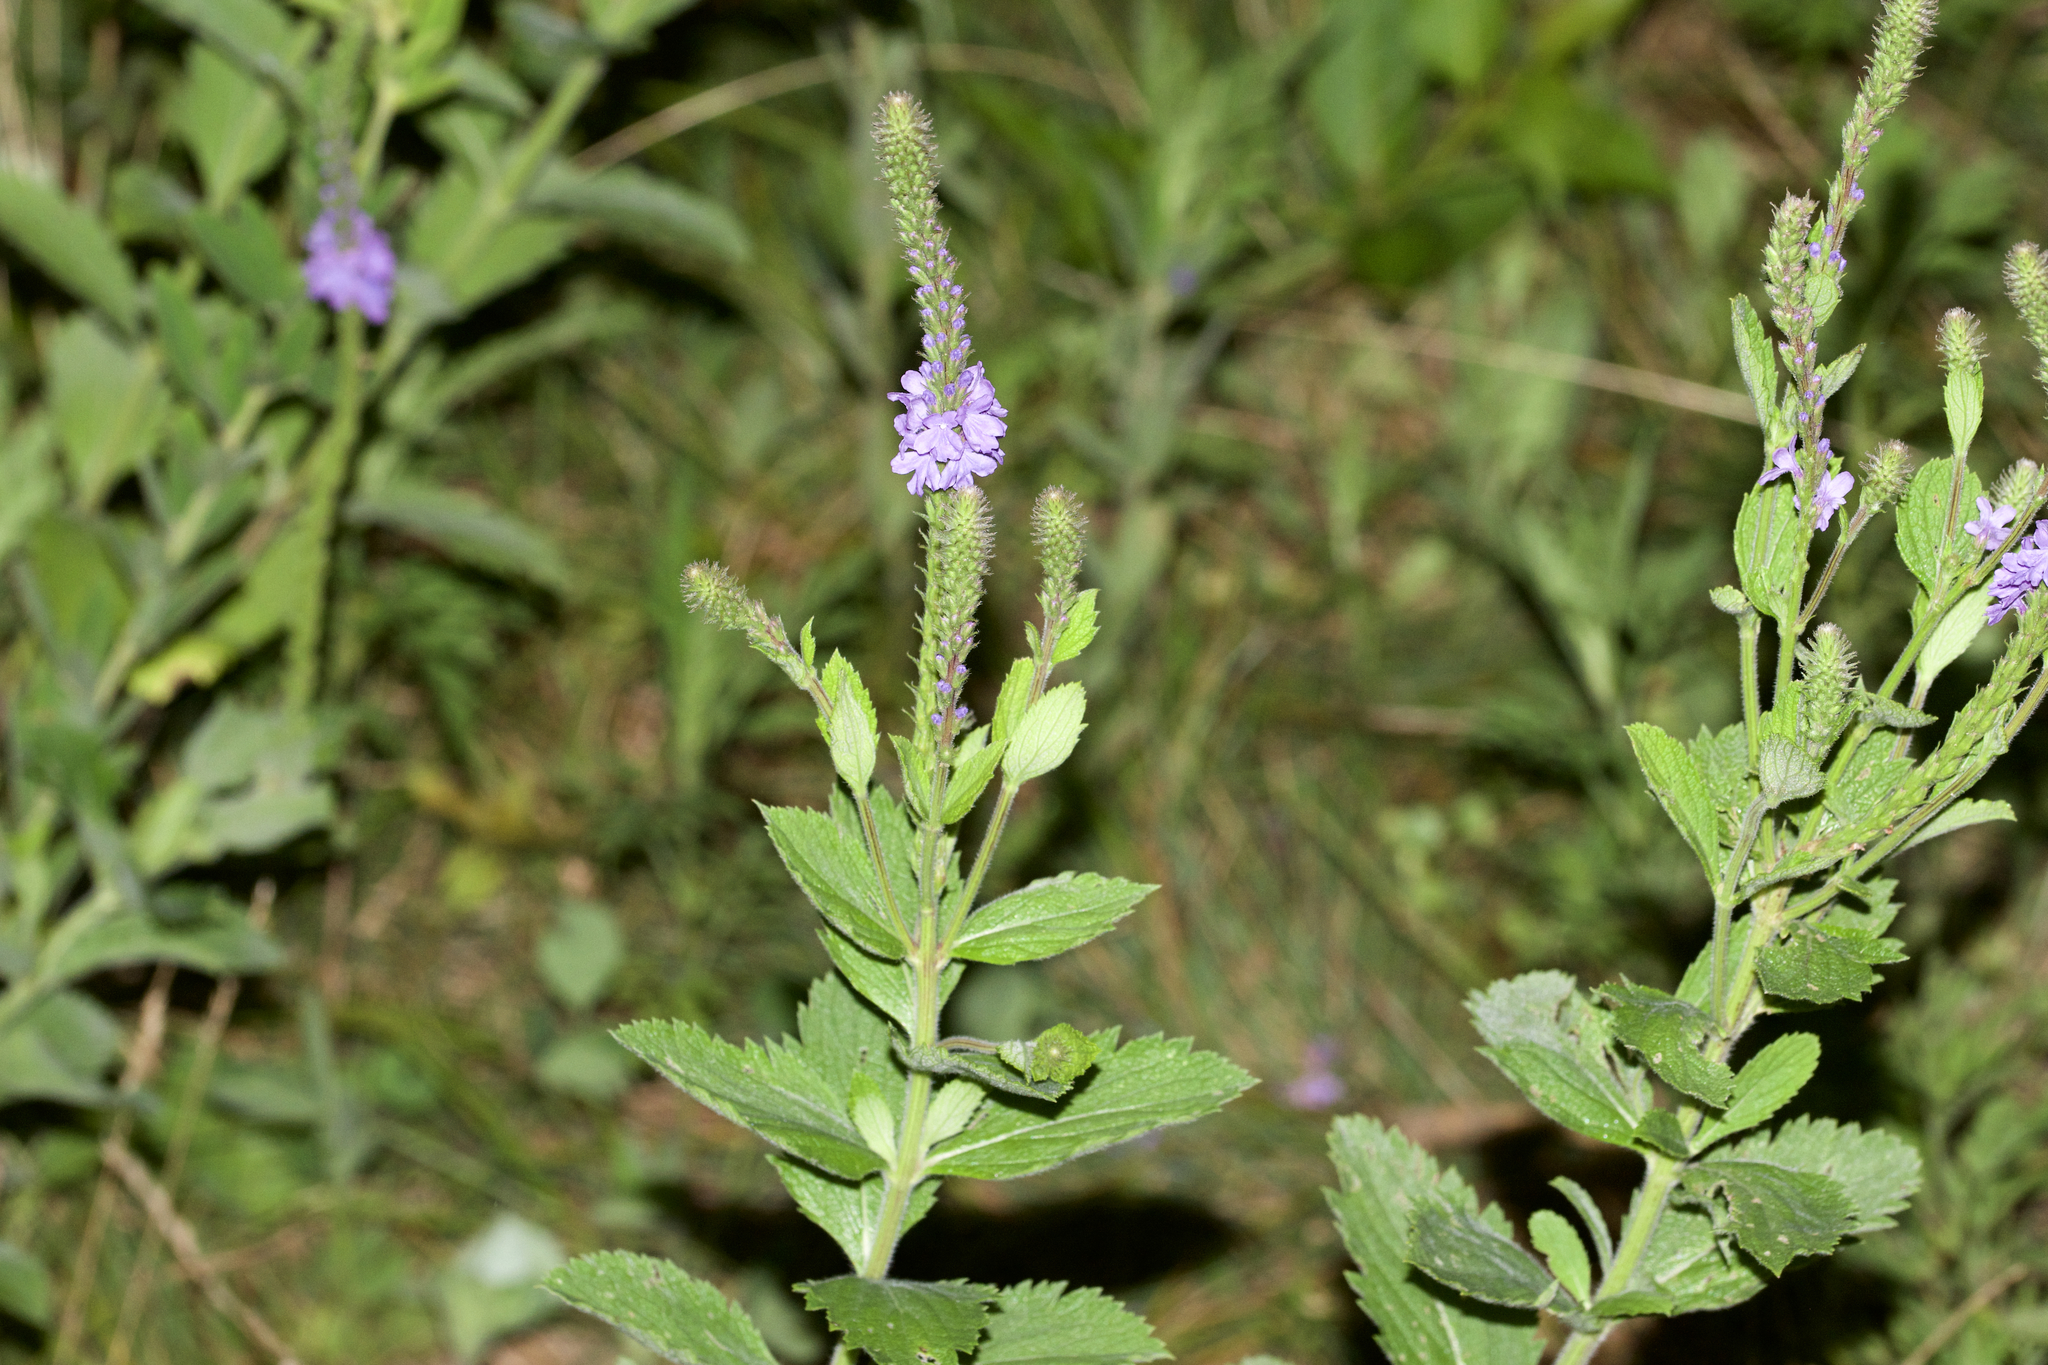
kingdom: Plantae
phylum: Tracheophyta
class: Magnoliopsida
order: Lamiales
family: Verbenaceae
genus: Verbena
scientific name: Verbena stricta
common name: Hoary vervain
